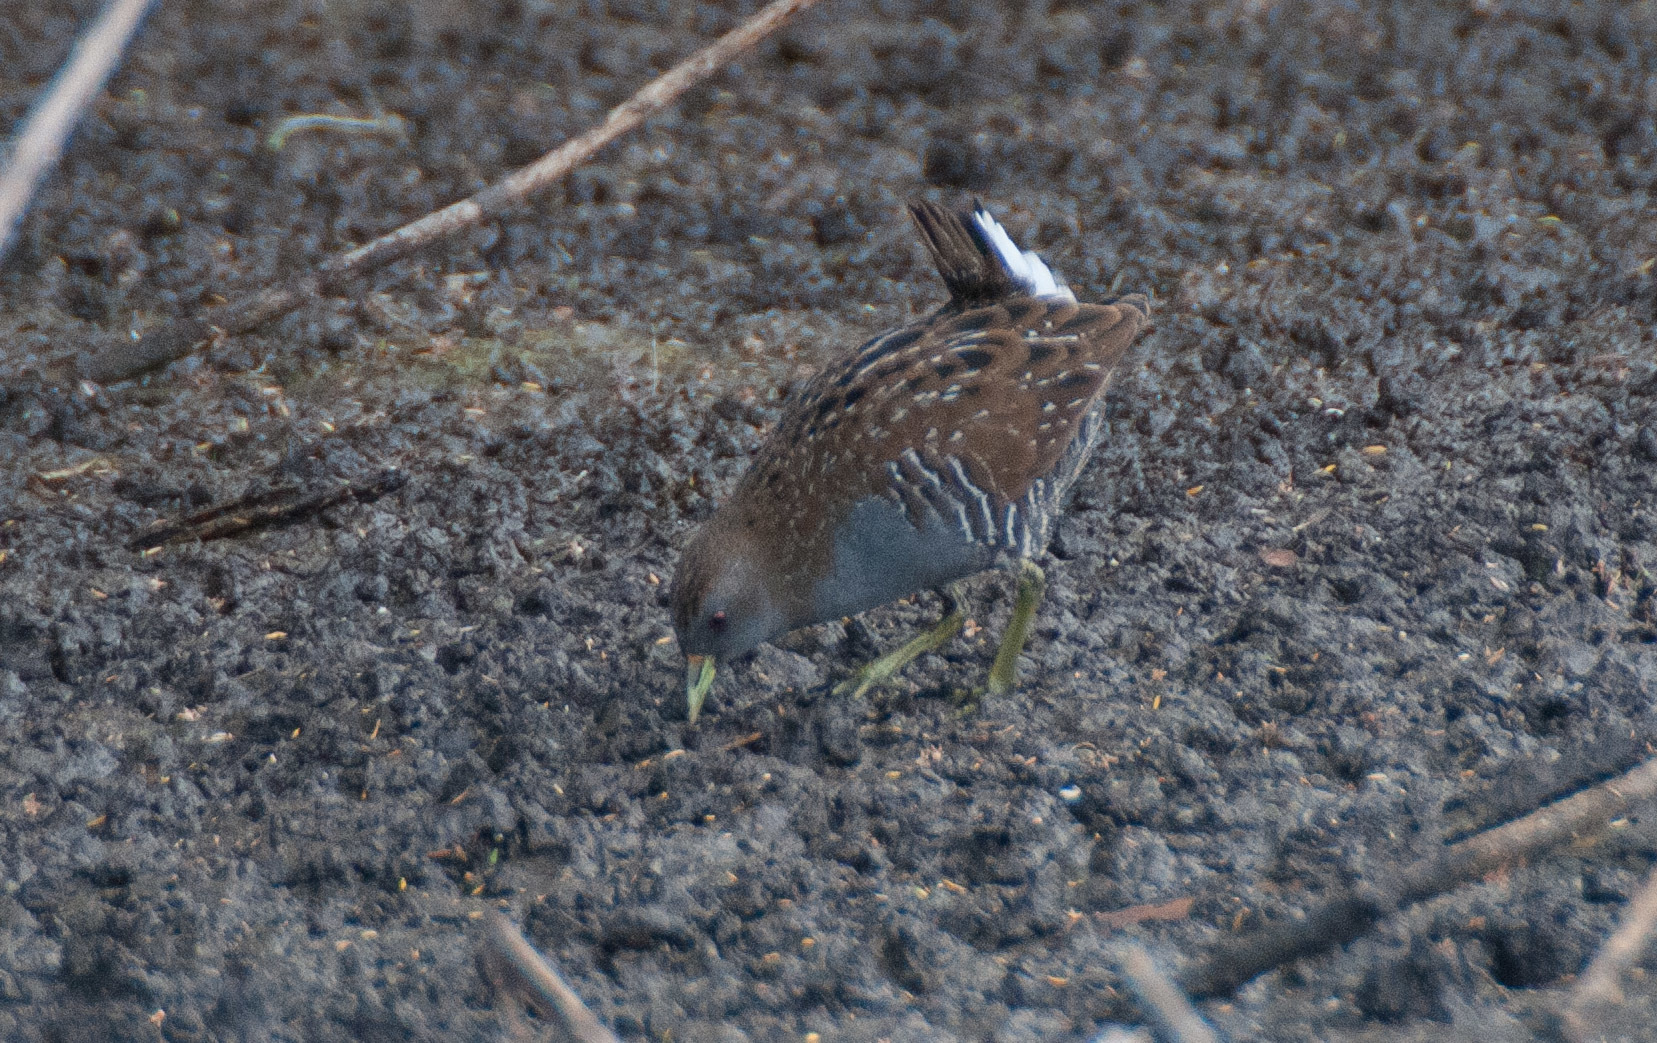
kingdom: Animalia
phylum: Chordata
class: Aves
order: Gruiformes
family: Rallidae
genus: Porzana
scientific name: Porzana fluminea
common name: Australian crake
